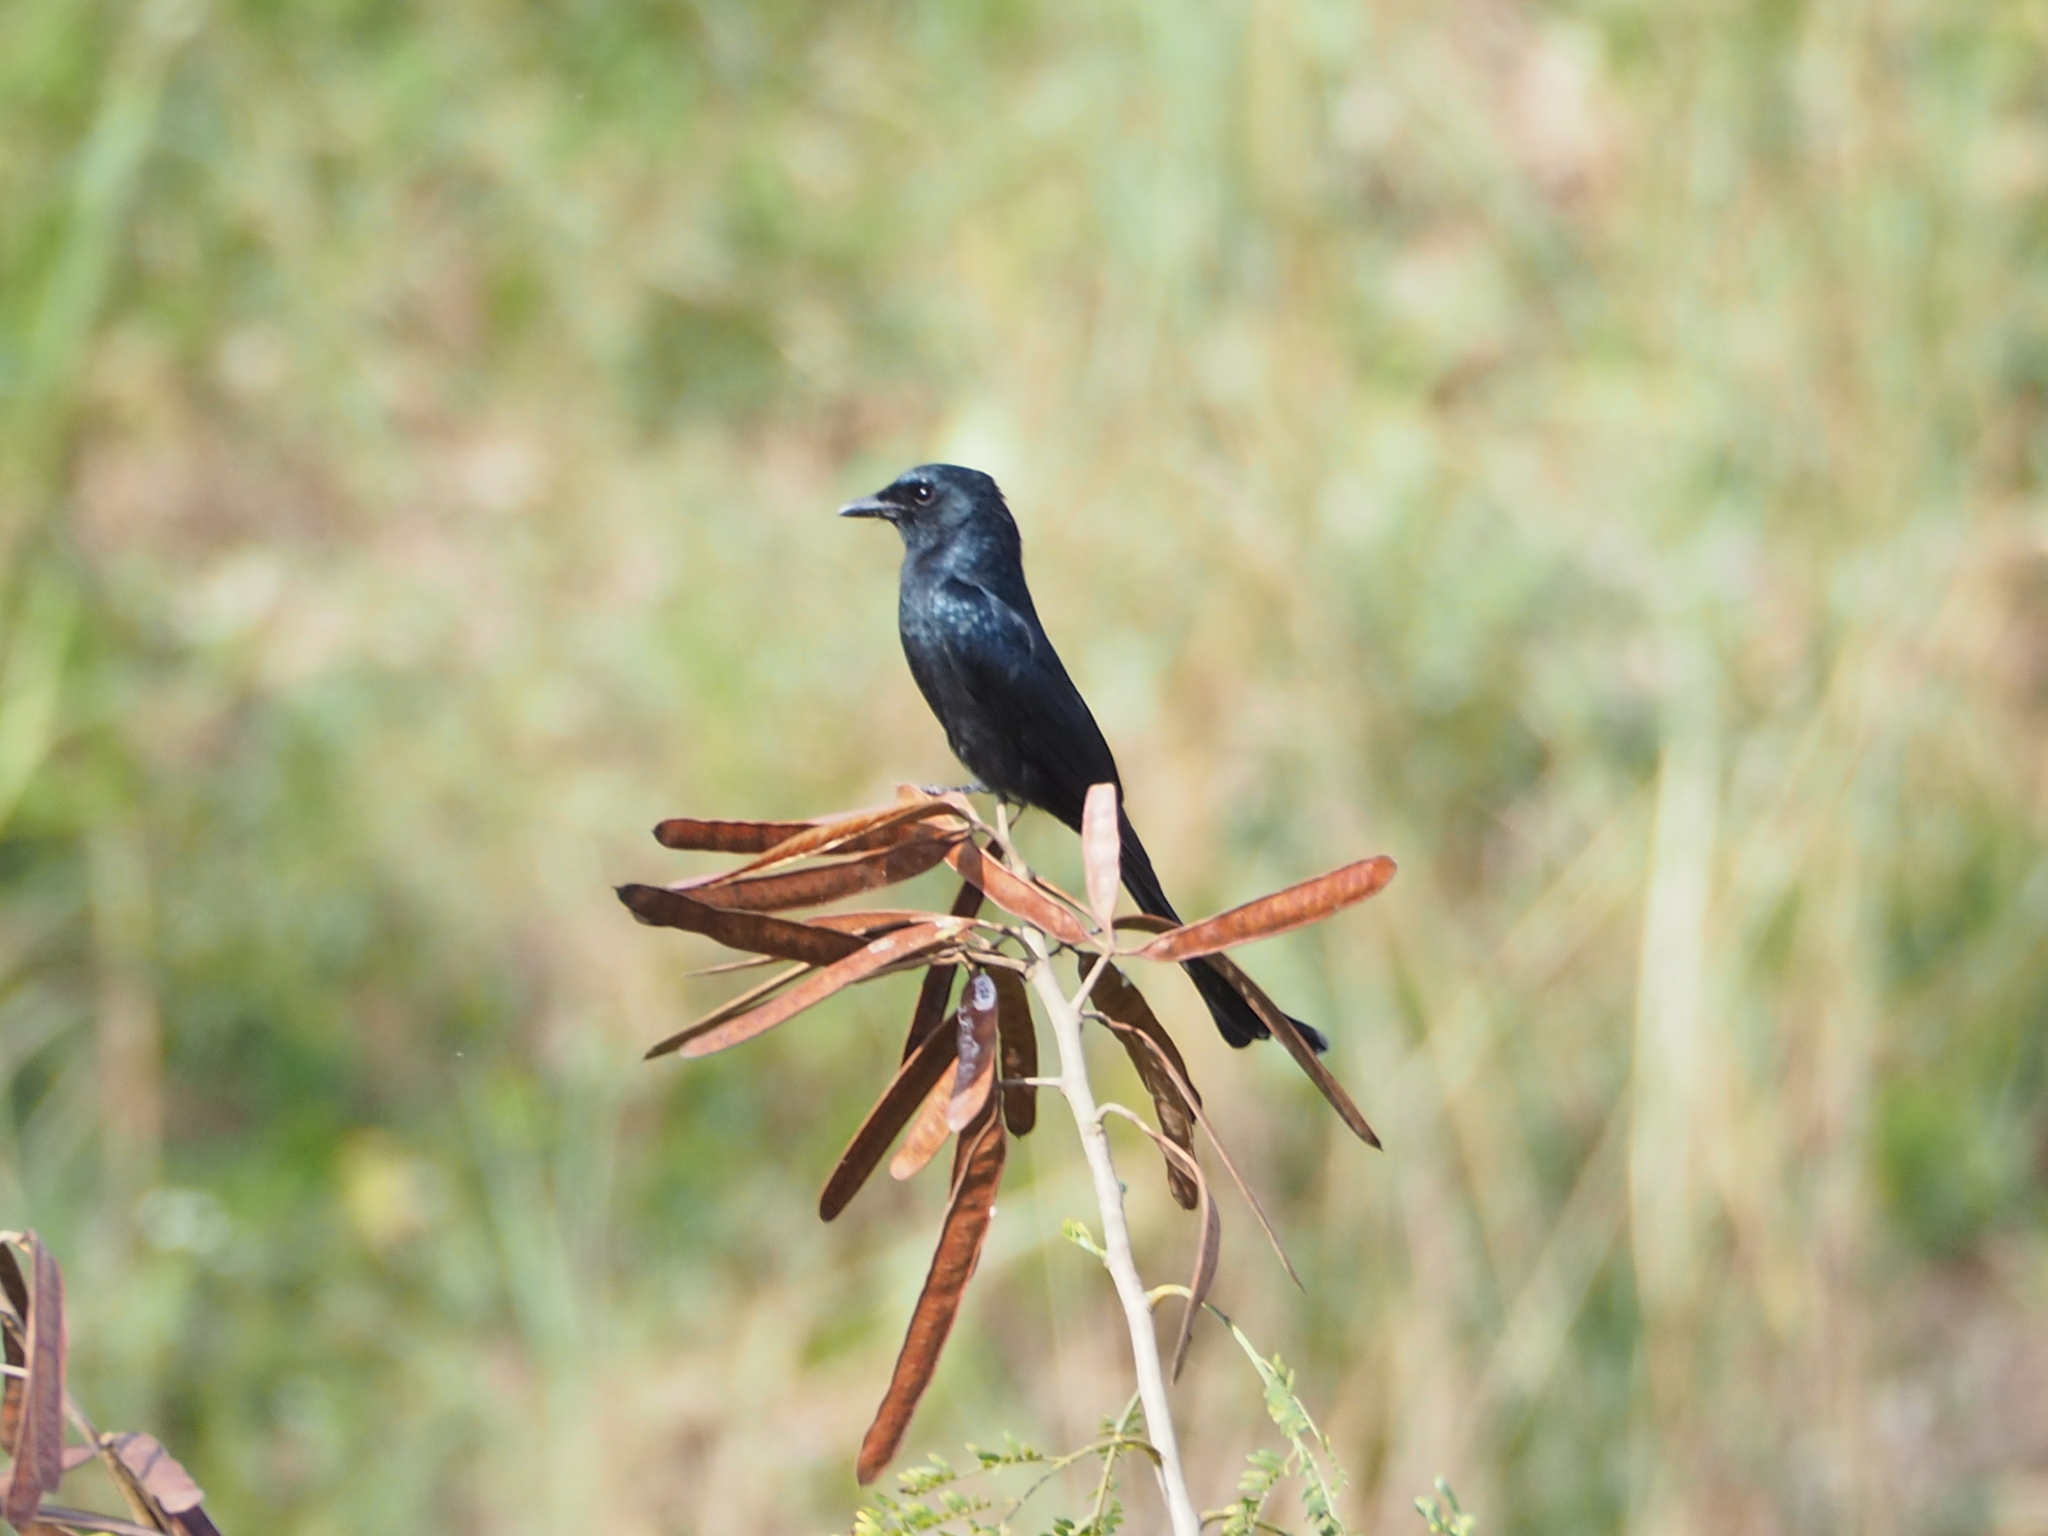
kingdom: Animalia
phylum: Chordata
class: Aves
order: Passeriformes
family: Dicruridae
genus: Dicrurus
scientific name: Dicrurus macrocercus
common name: Black drongo
